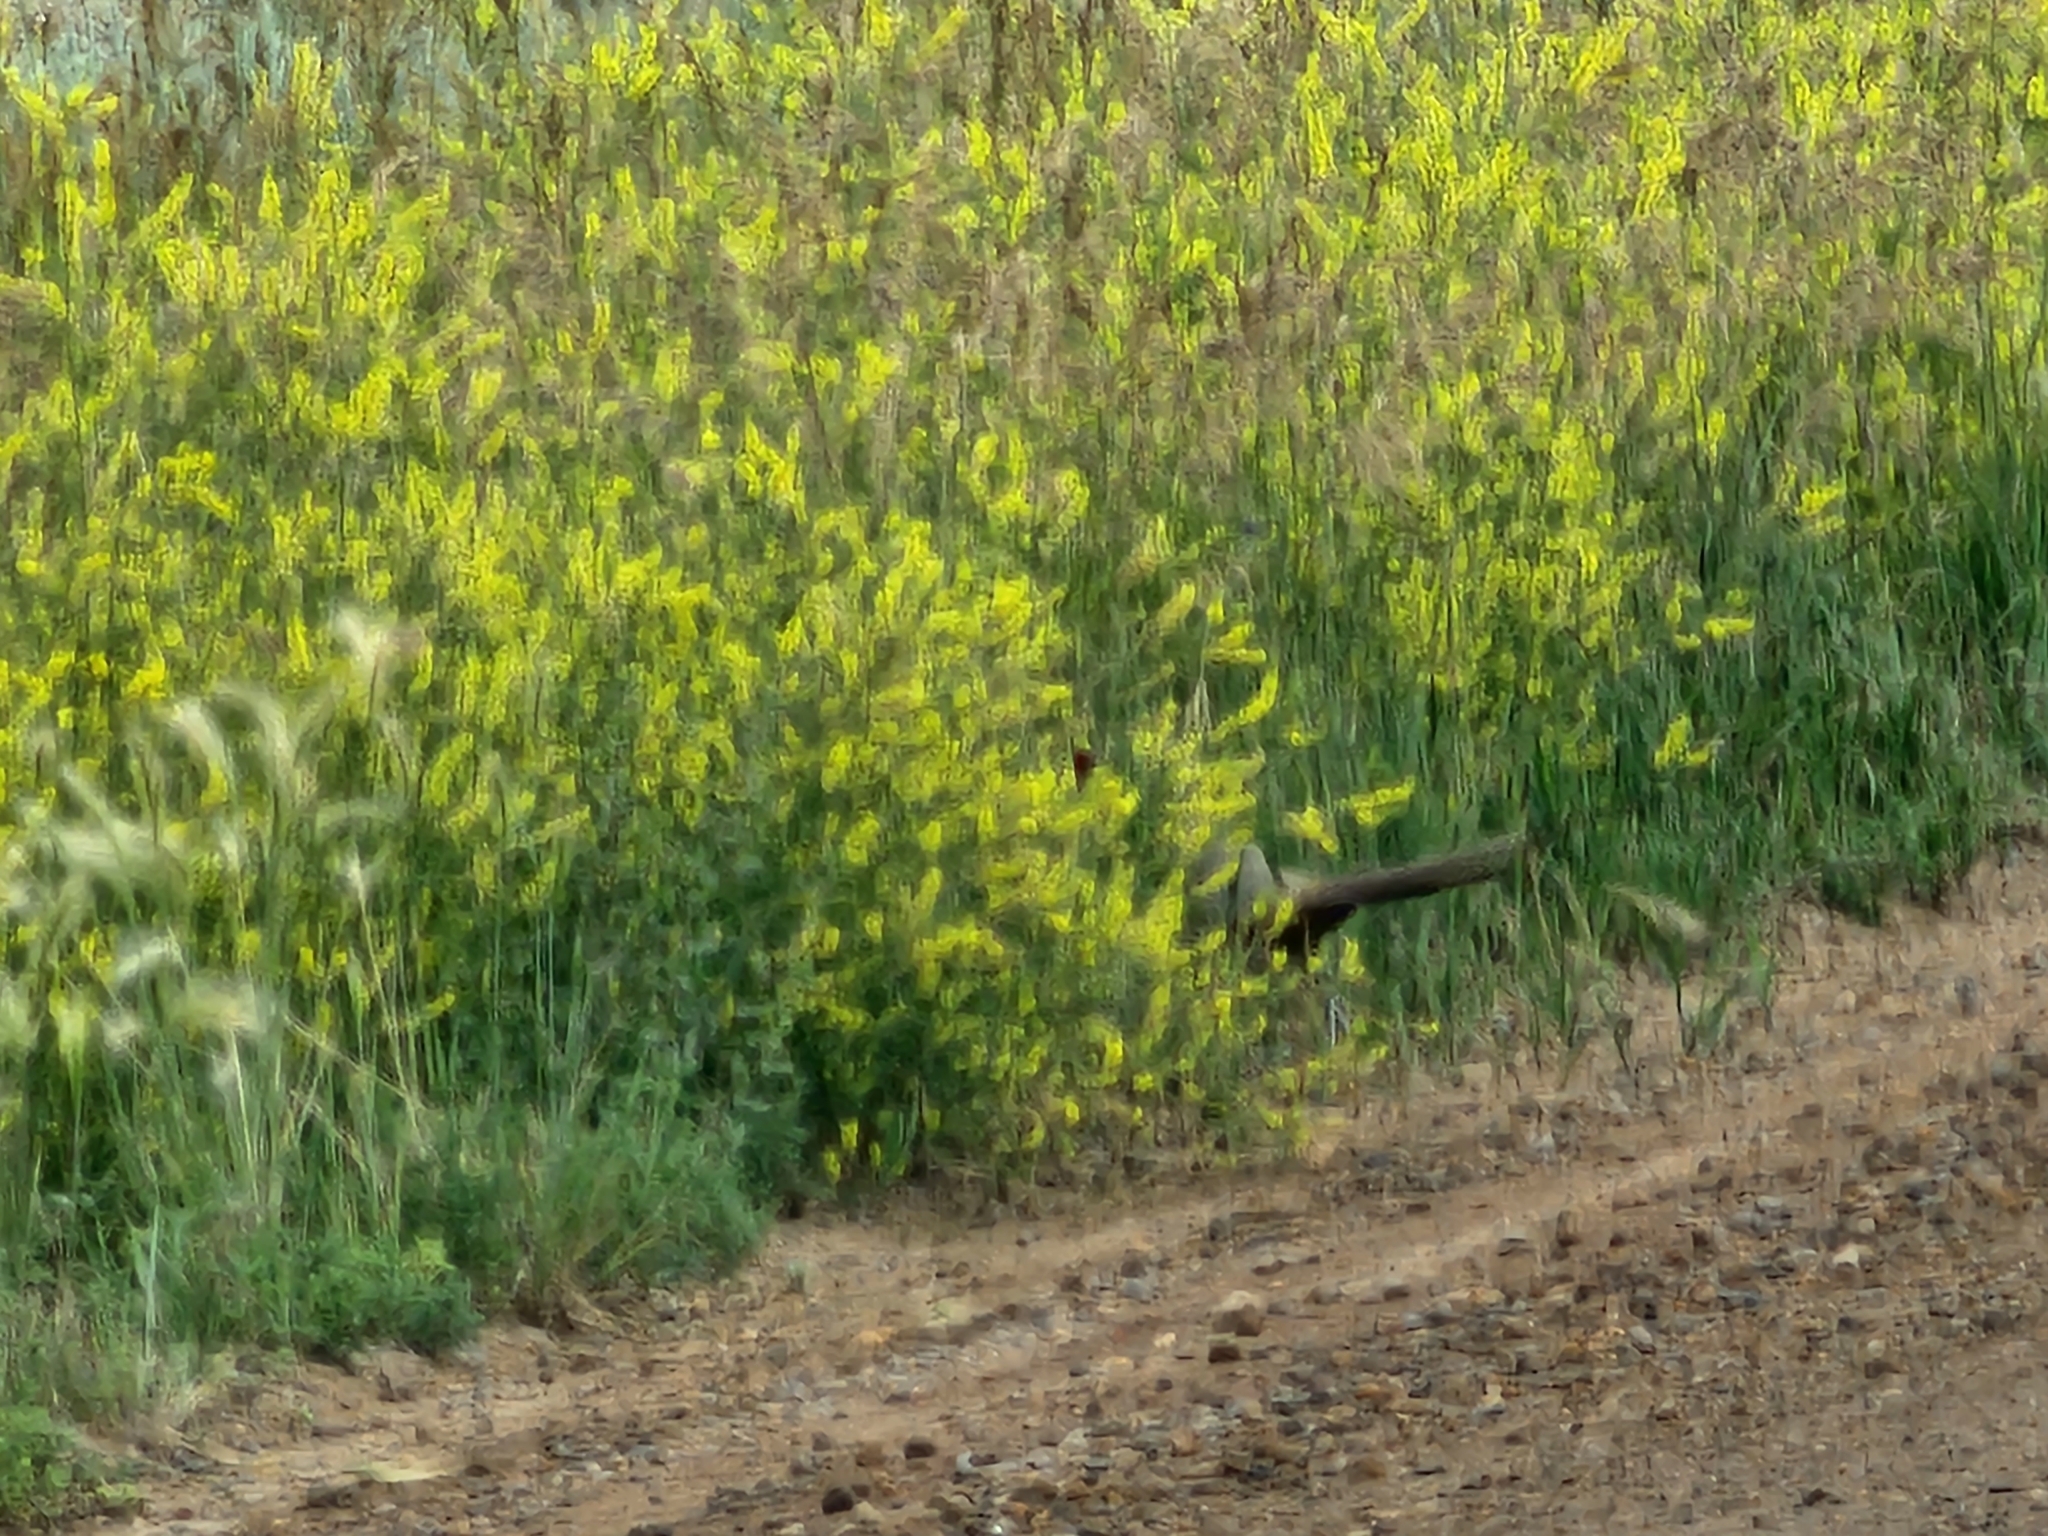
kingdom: Animalia
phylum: Chordata
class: Aves
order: Galliformes
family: Phasianidae
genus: Phasianus
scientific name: Phasianus colchicus
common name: Common pheasant
